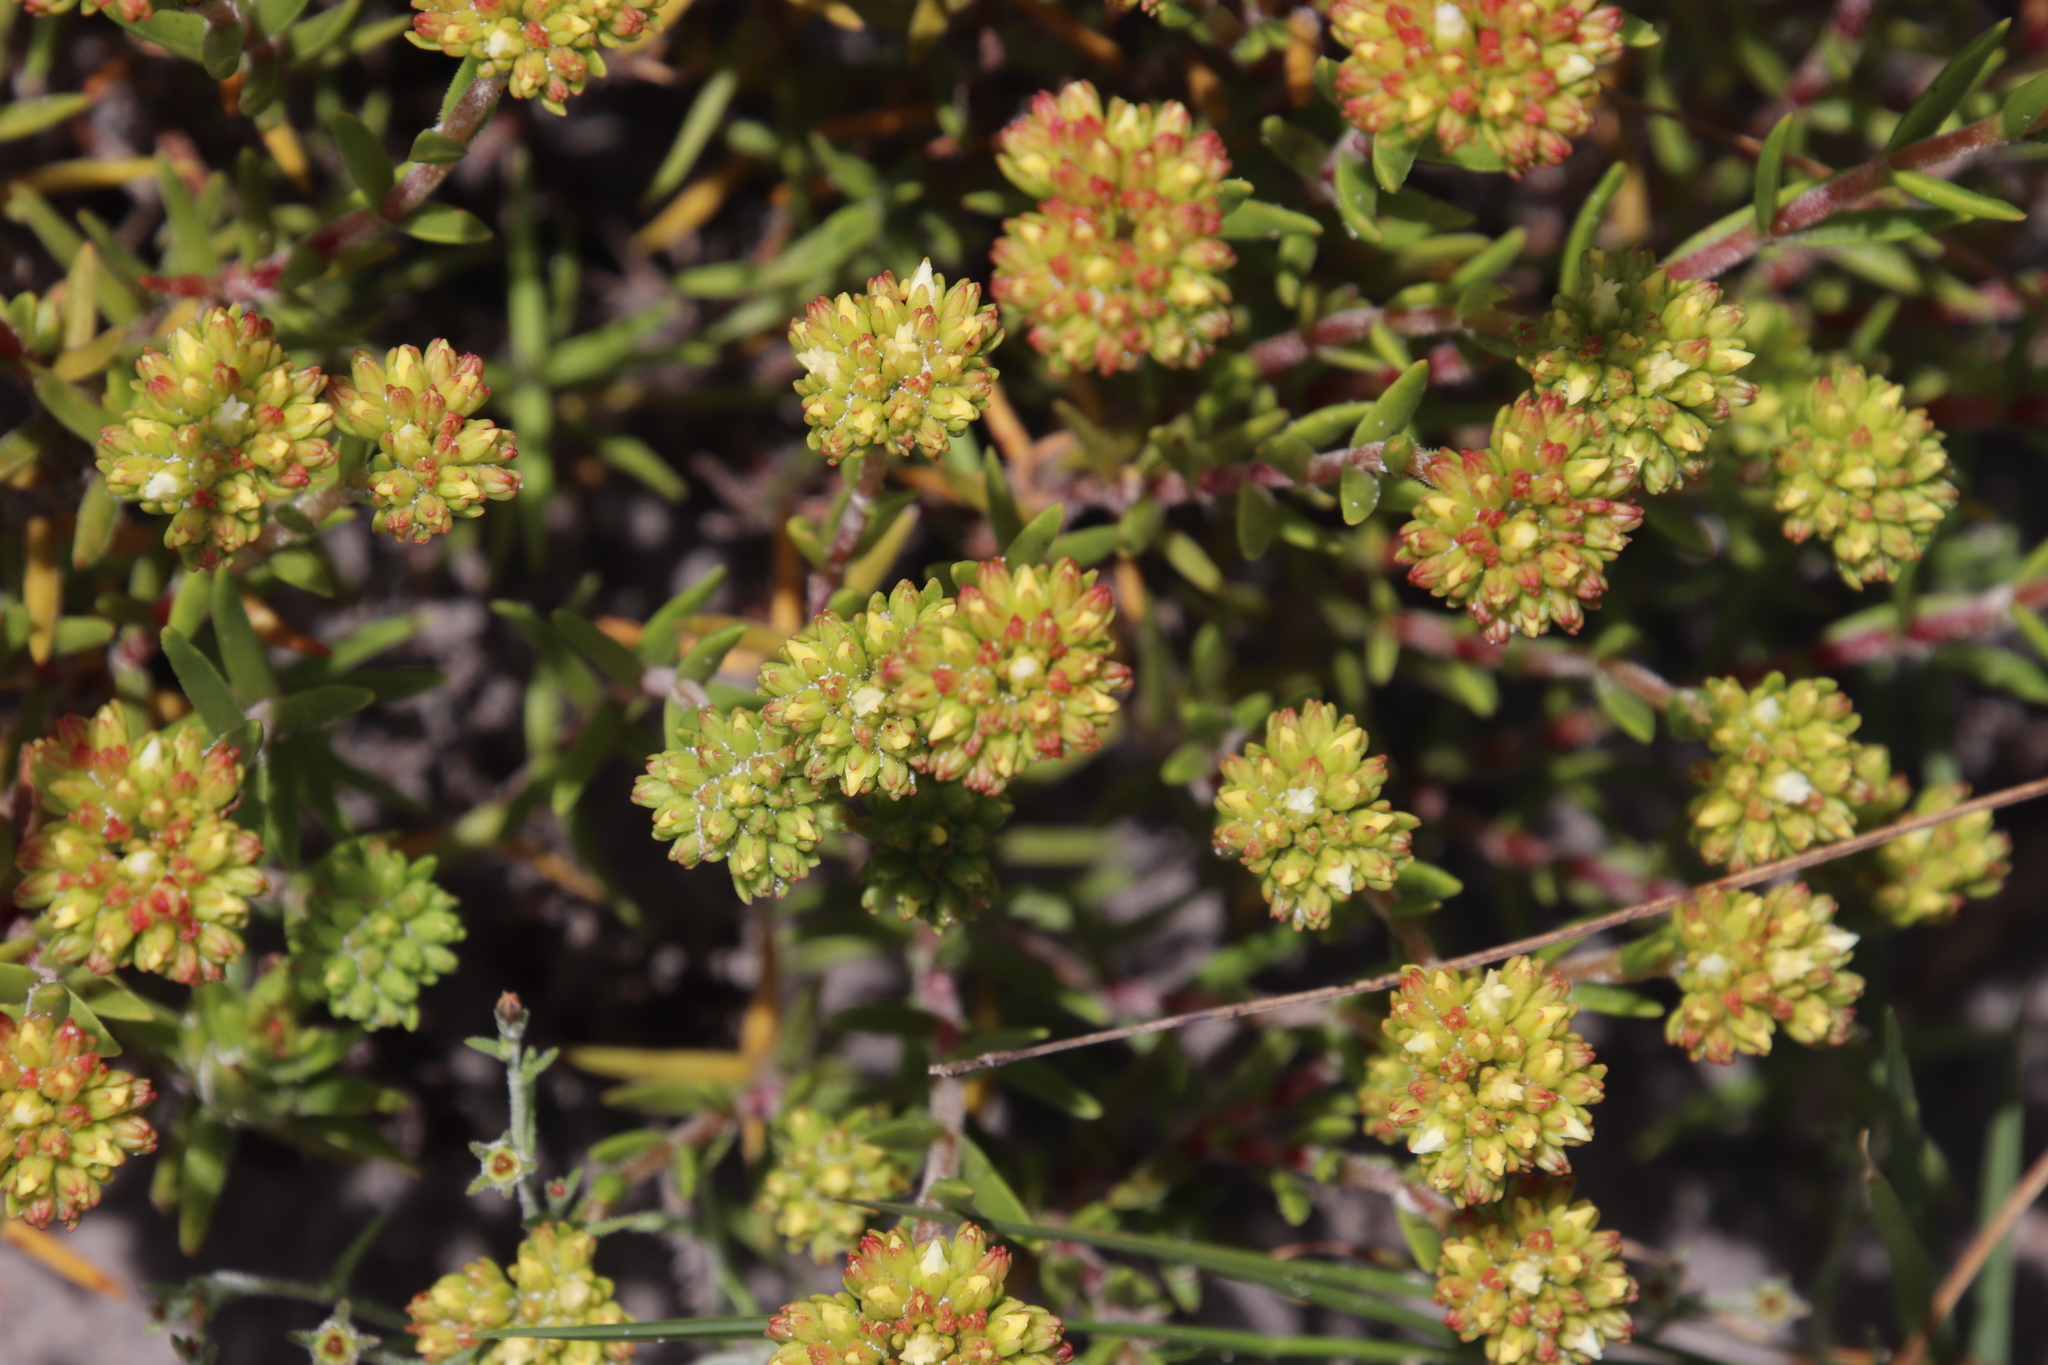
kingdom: Plantae
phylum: Tracheophyta
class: Magnoliopsida
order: Saxifragales
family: Crassulaceae
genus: Crassula
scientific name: Crassula subulata
